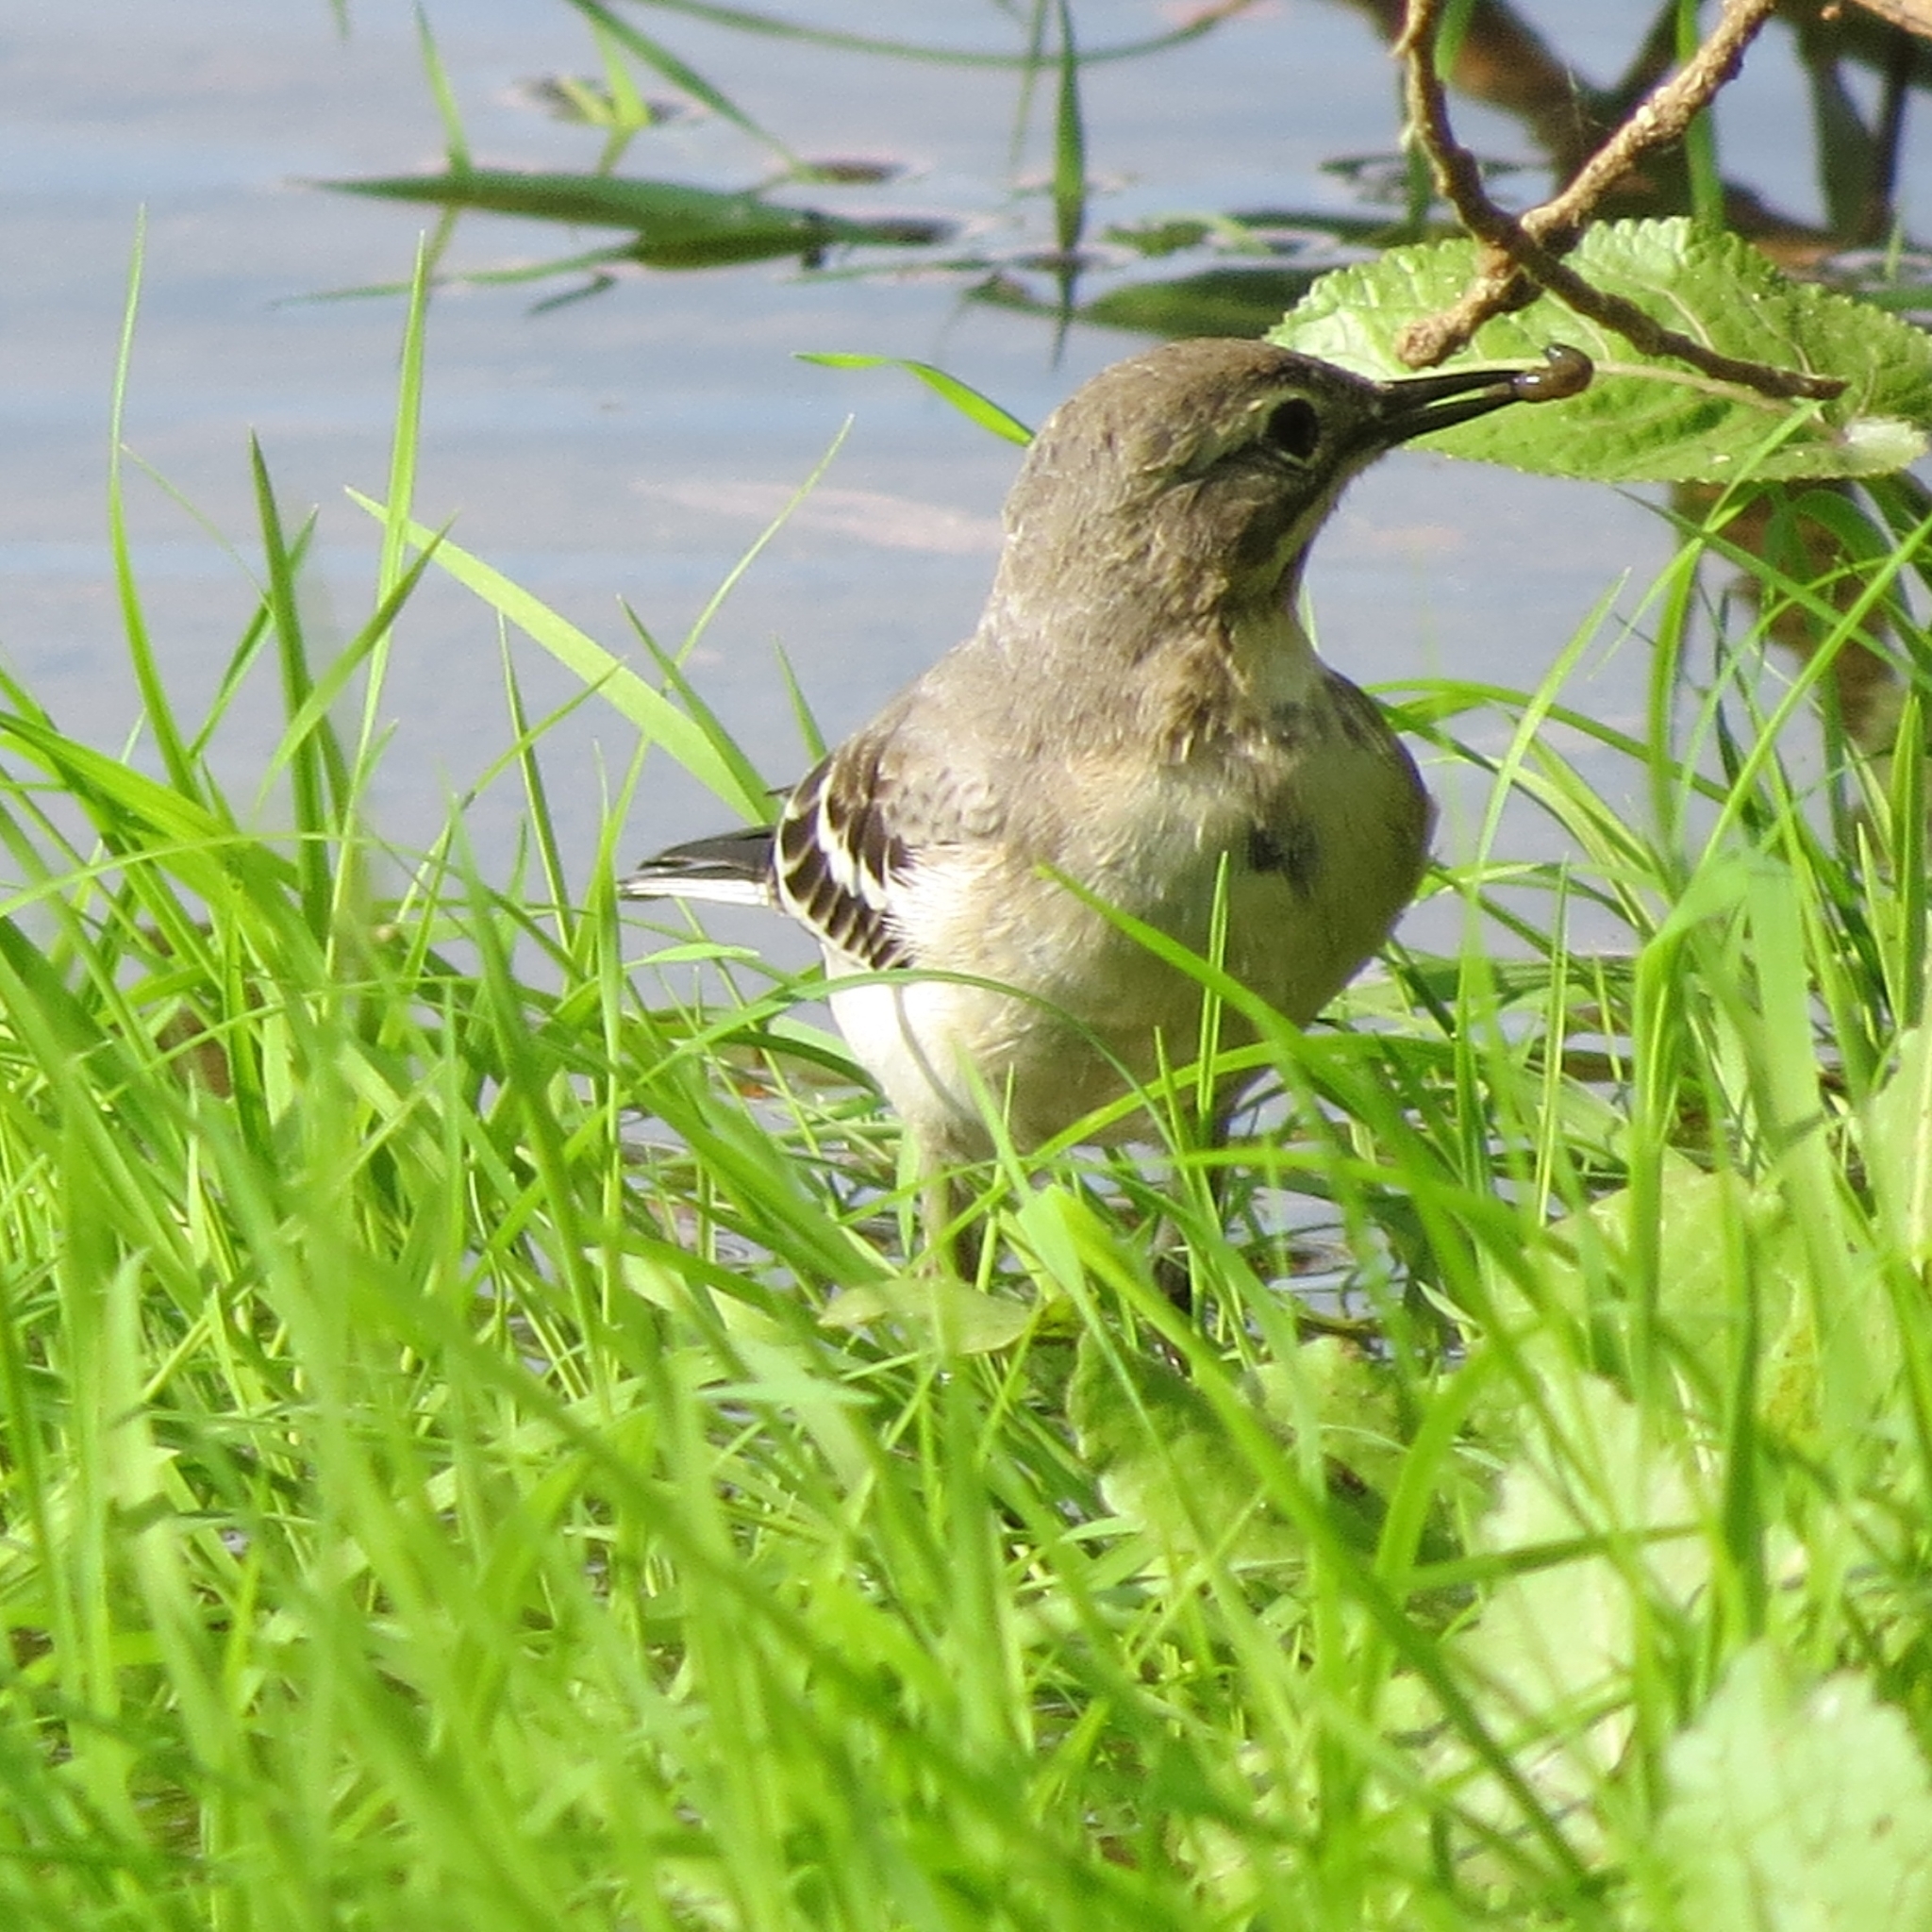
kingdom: Animalia
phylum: Chordata
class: Aves
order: Passeriformes
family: Motacillidae
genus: Motacilla
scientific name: Motacilla citreola
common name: Citrine wagtail
